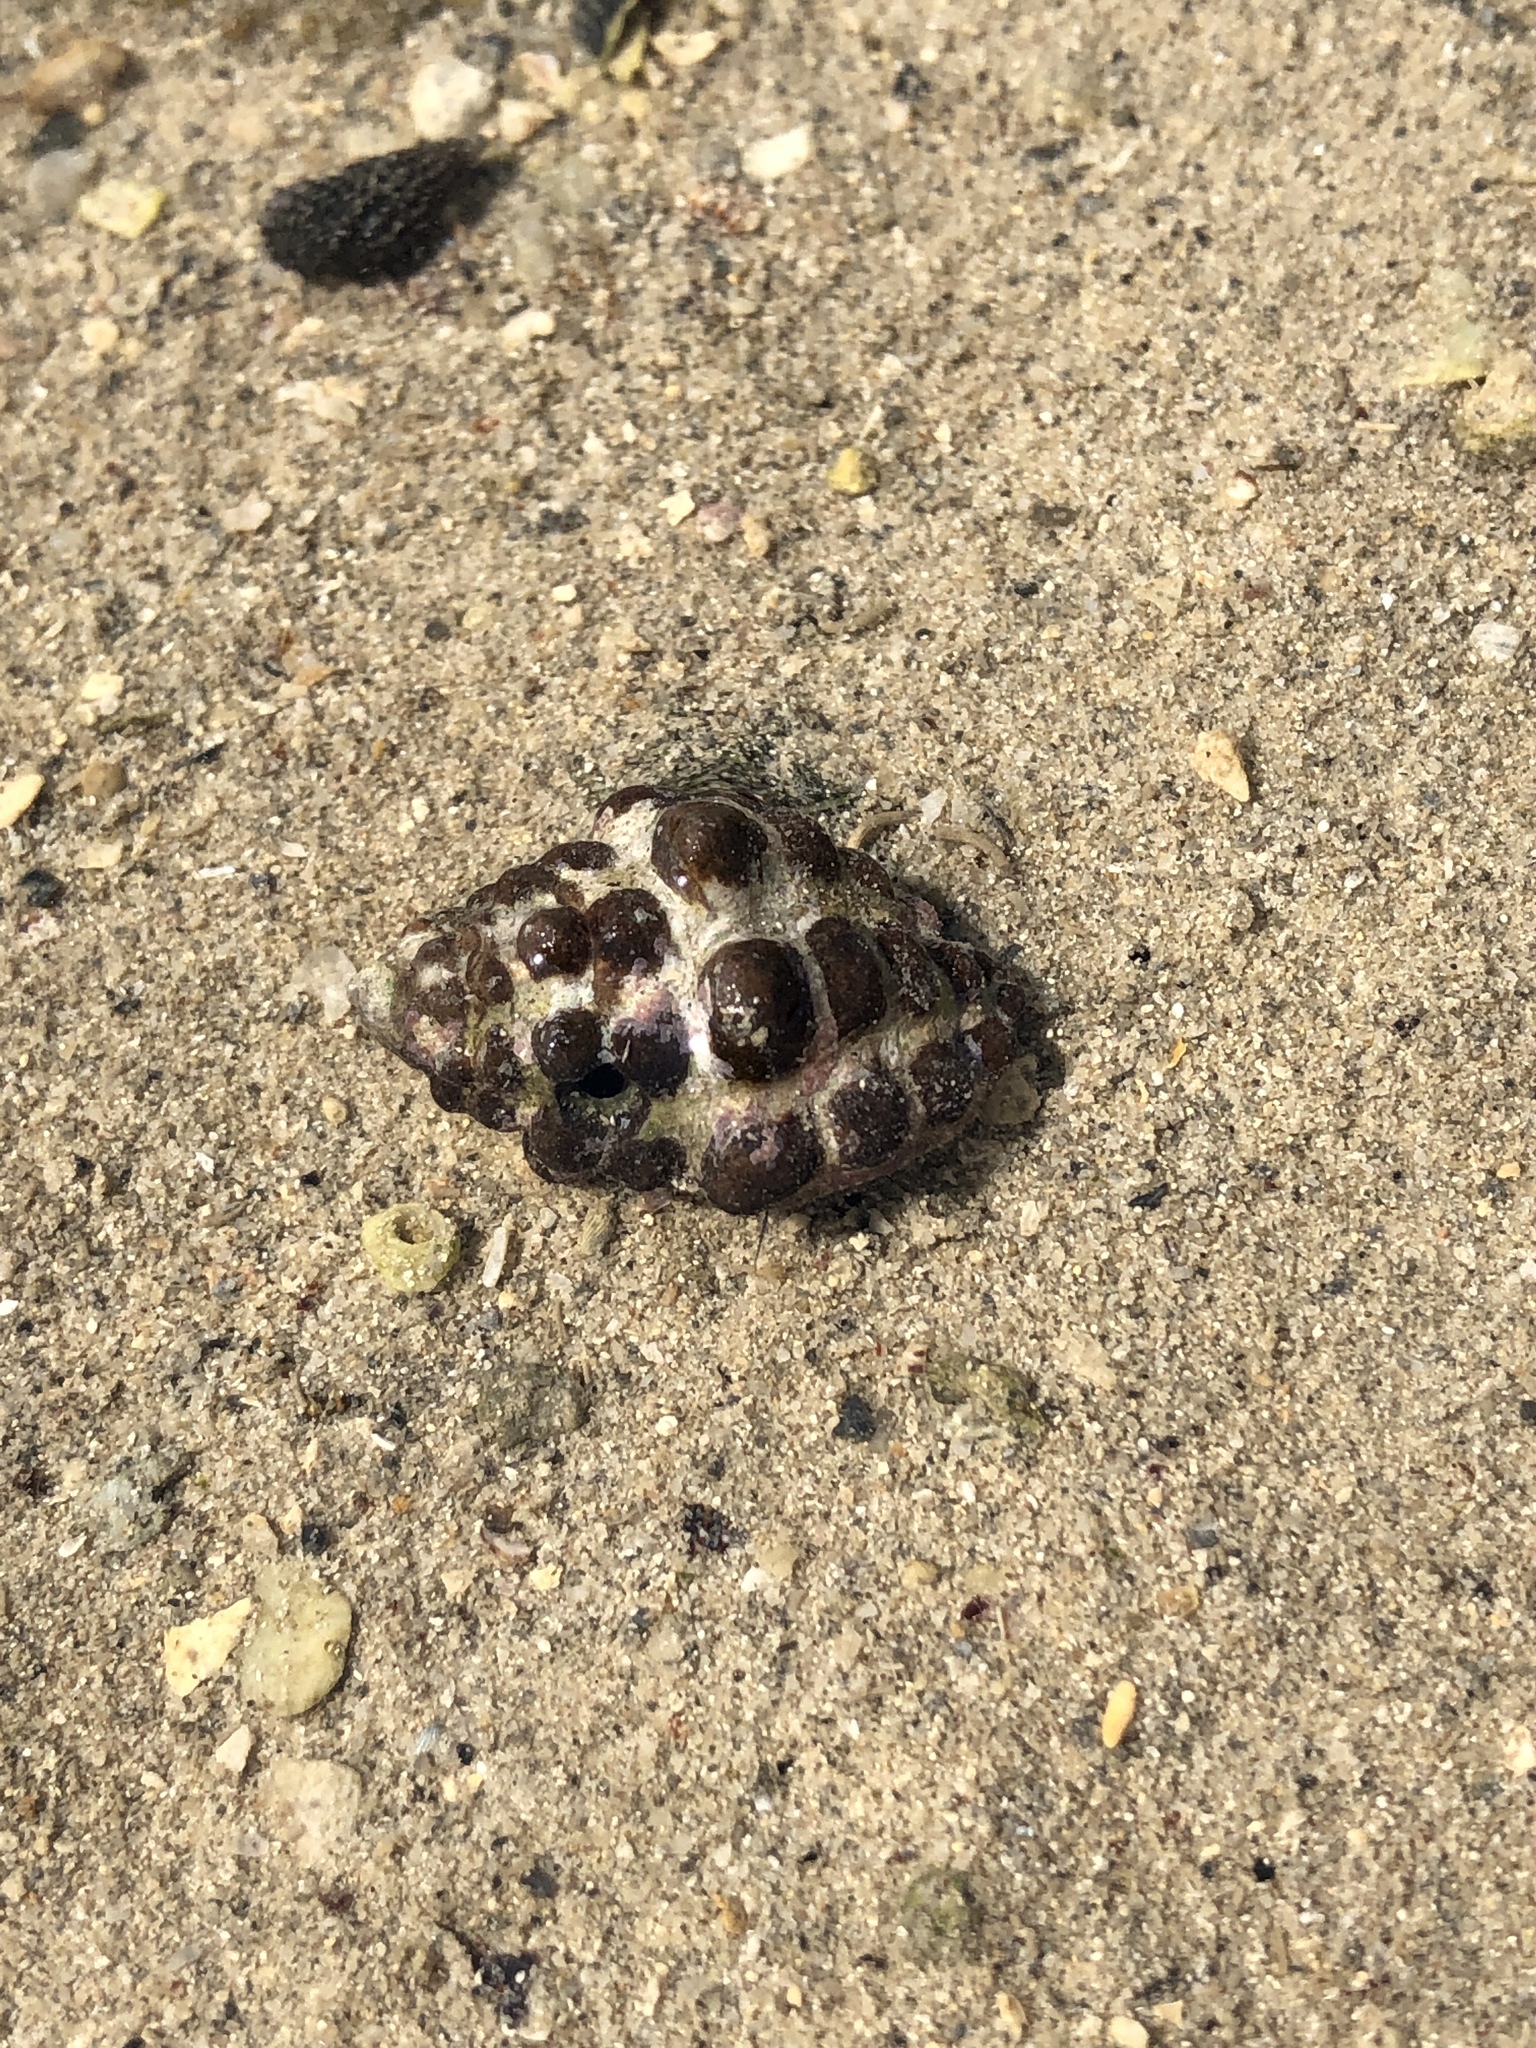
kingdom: Animalia
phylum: Mollusca
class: Gastropoda
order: Neogastropoda
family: Muricidae
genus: Tenguella
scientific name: Tenguella marginalba
